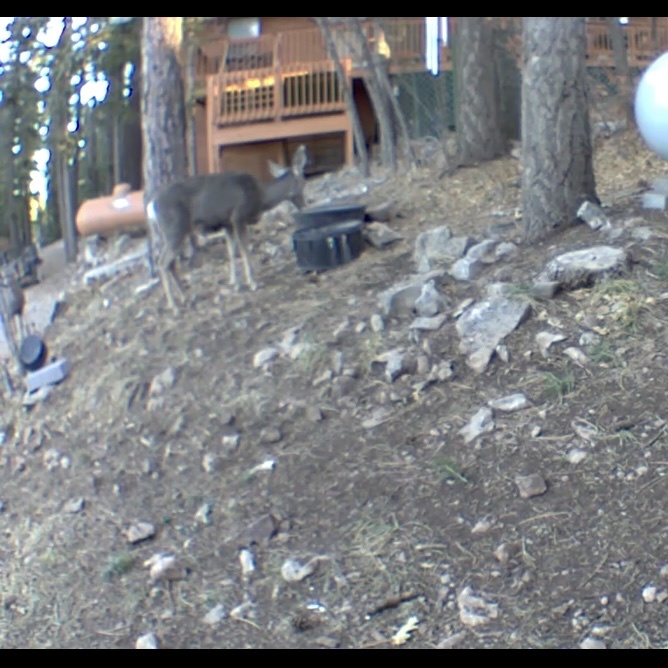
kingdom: Animalia
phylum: Chordata
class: Mammalia
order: Artiodactyla
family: Cervidae
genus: Odocoileus
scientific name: Odocoileus hemionus
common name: Mule deer
